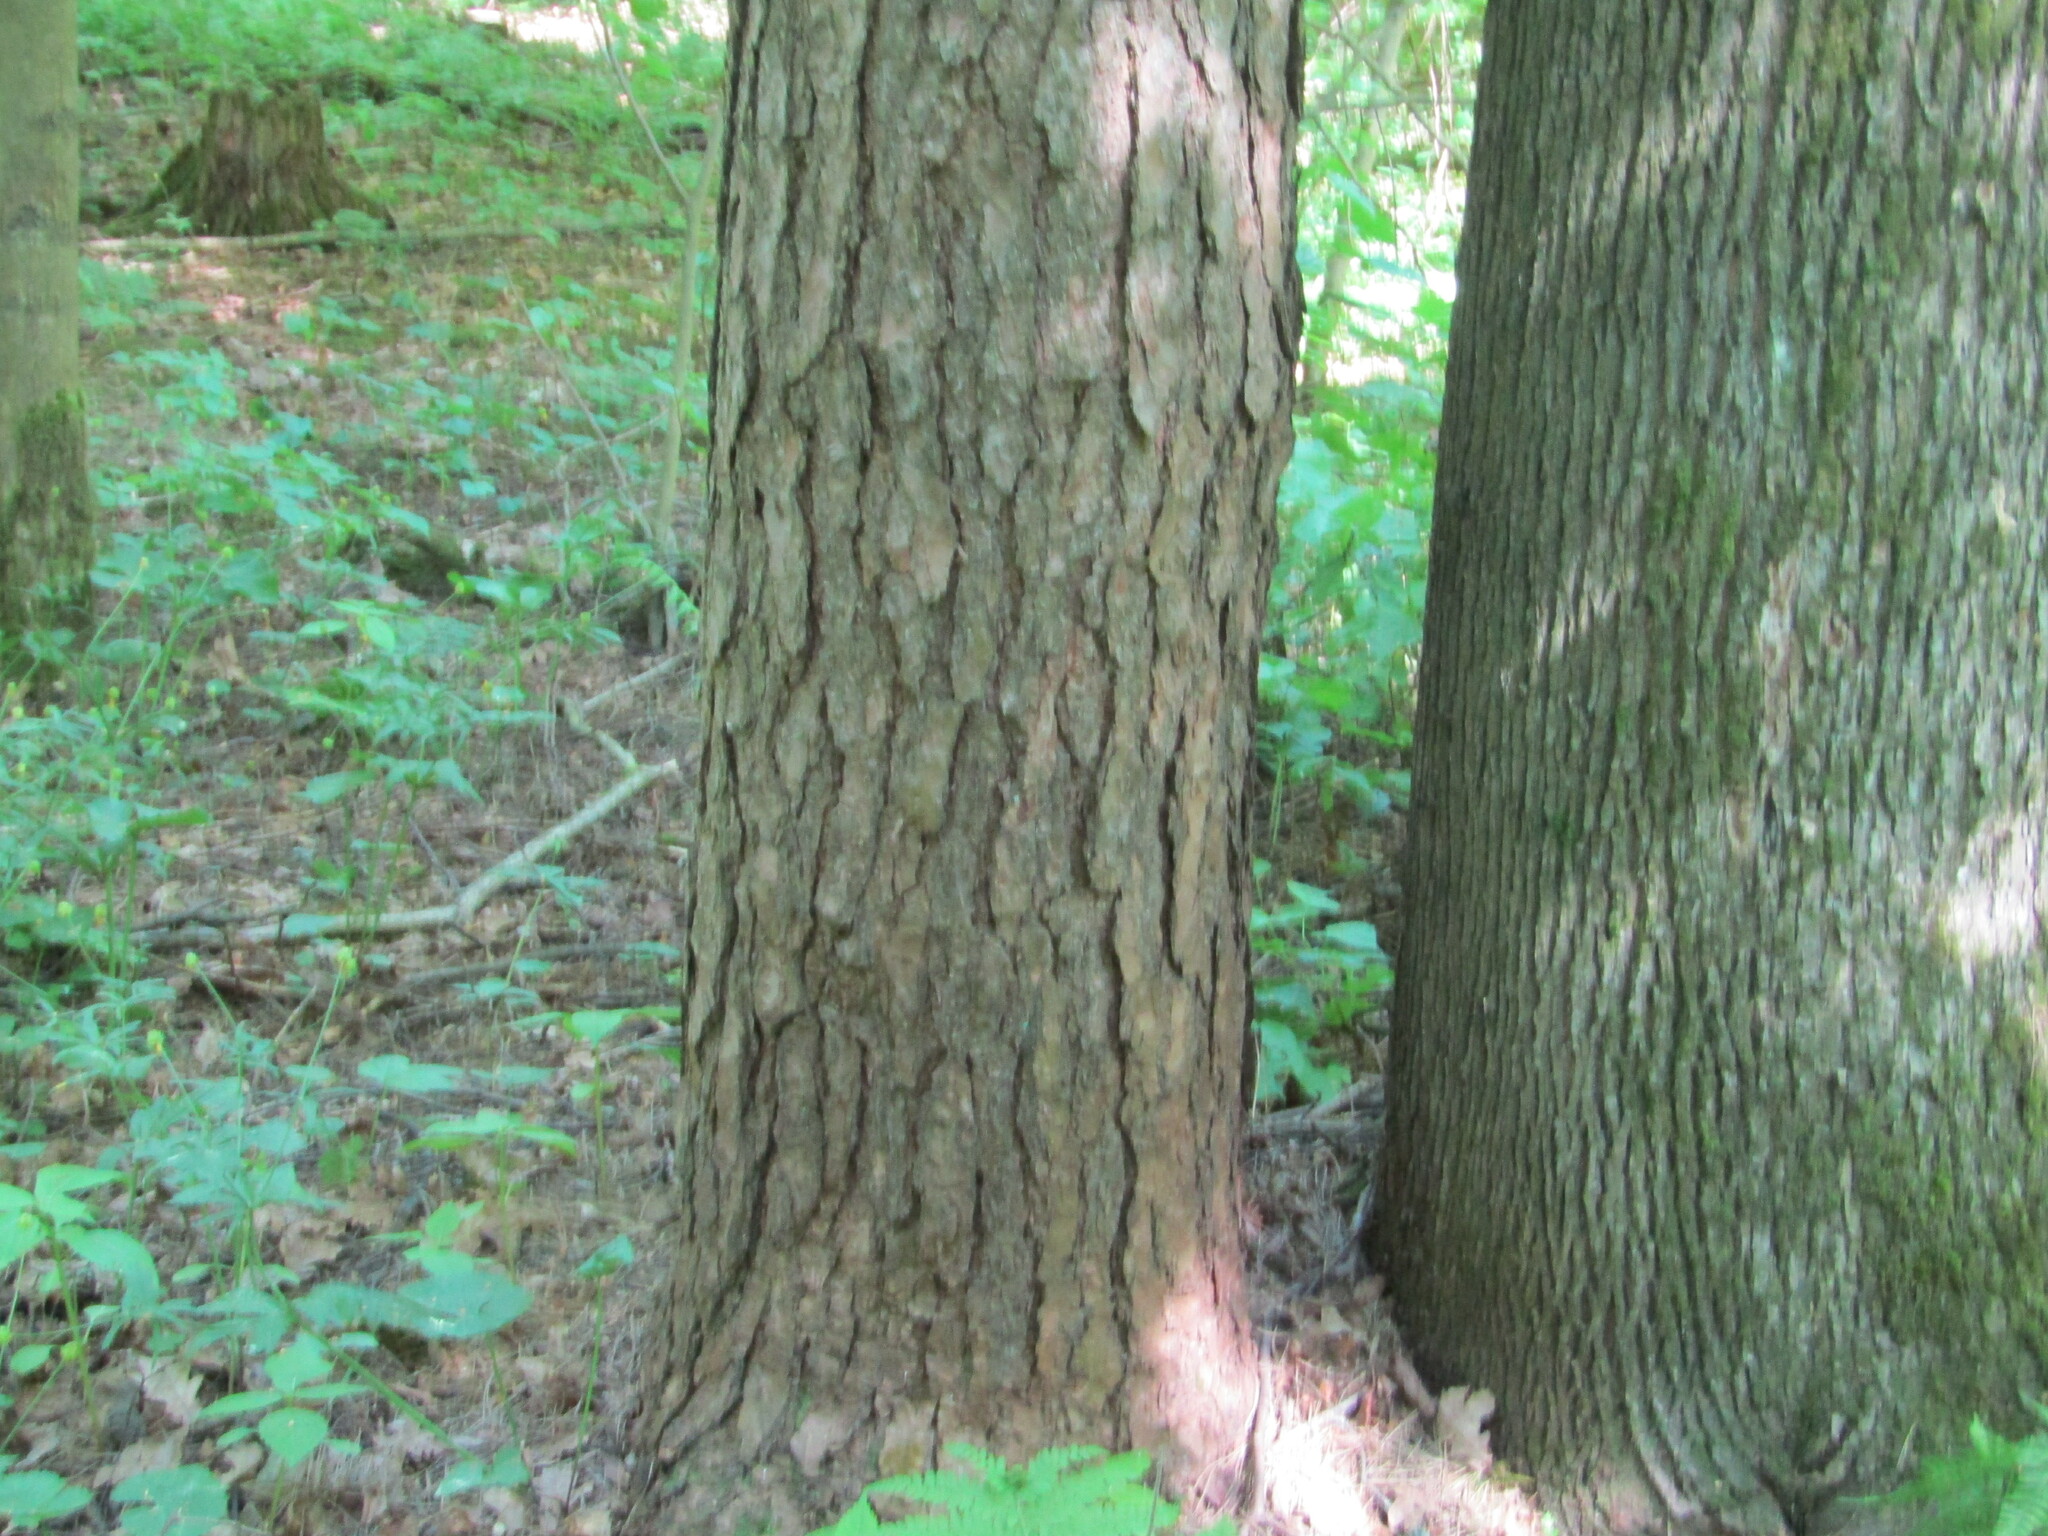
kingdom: Plantae
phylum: Tracheophyta
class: Pinopsida
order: Pinales
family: Pinaceae
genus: Pinus
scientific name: Pinus sylvestris
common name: Scots pine
